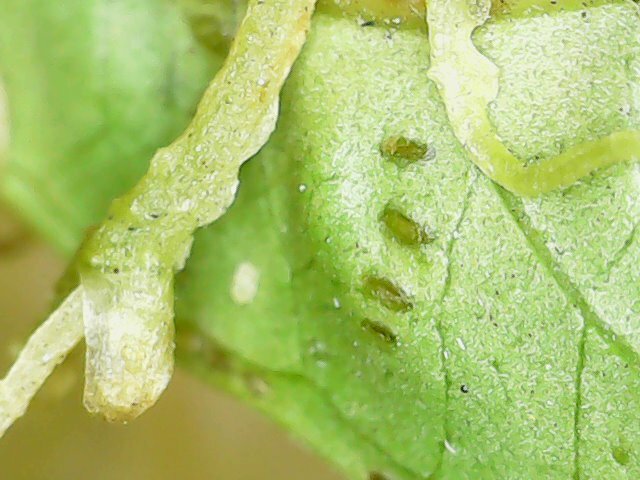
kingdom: Plantae
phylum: Tracheophyta
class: Magnoliopsida
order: Solanales
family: Convolvulaceae
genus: Cuscuta
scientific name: Cuscuta campestris
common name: Yellow dodder
